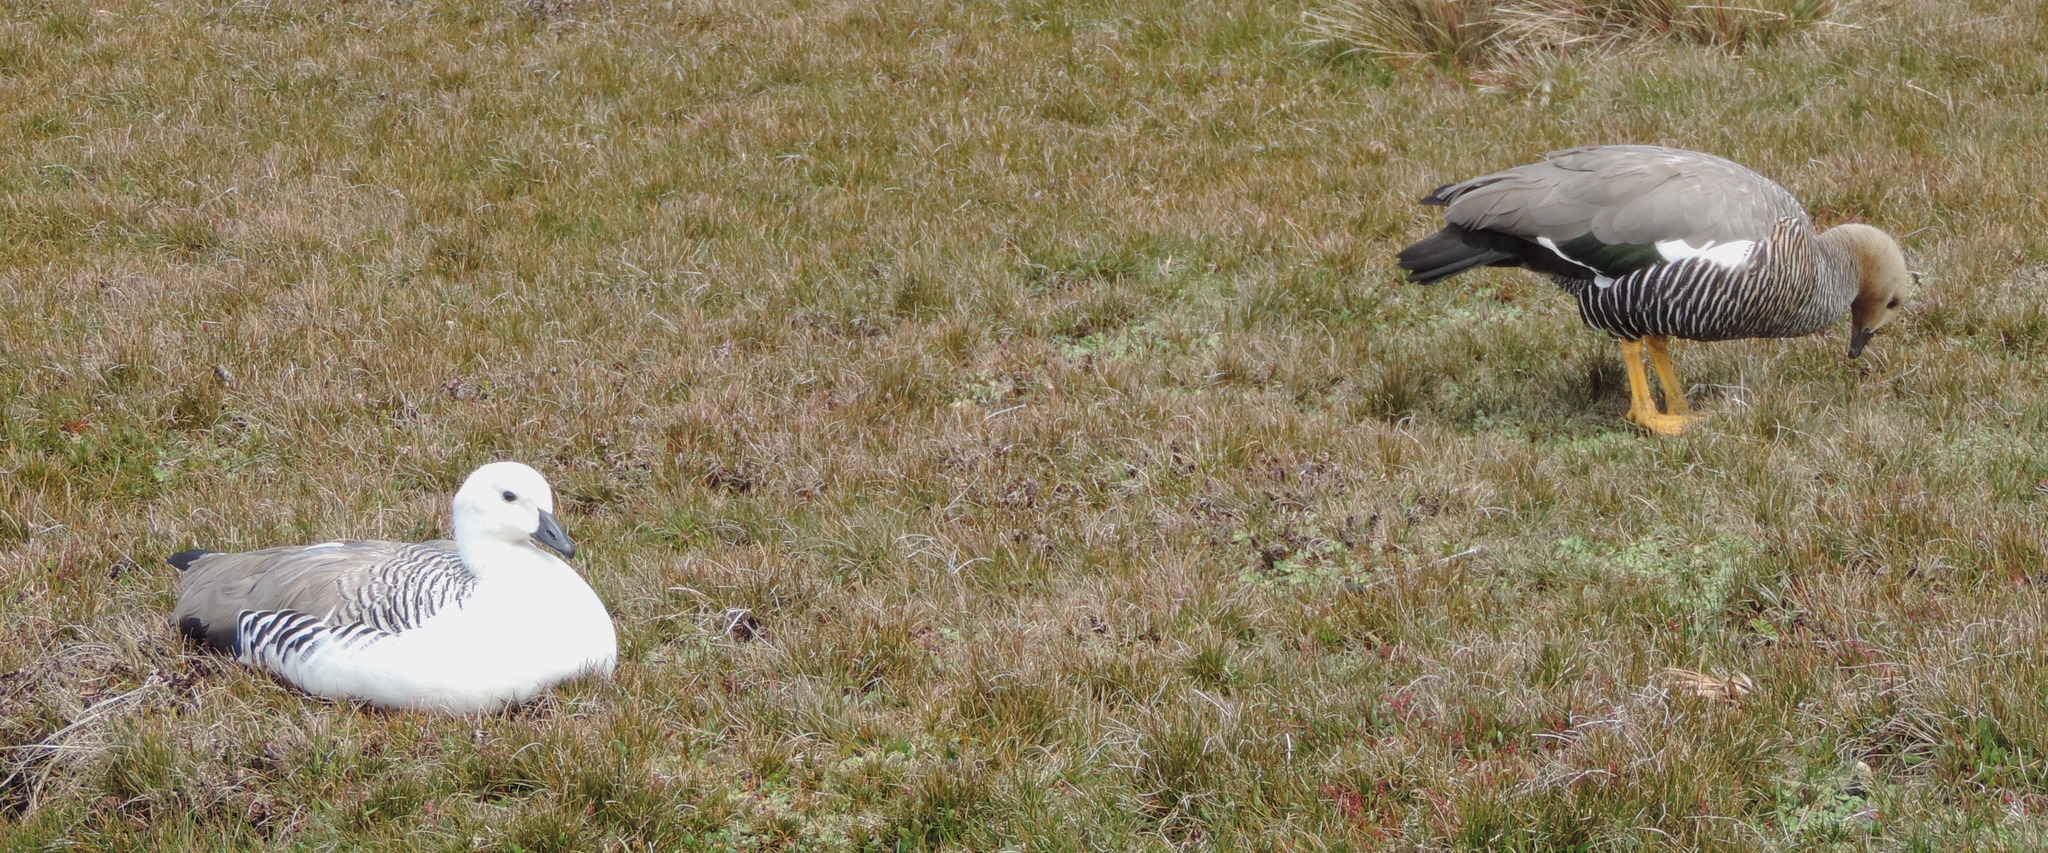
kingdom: Animalia
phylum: Chordata
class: Aves
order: Anseriformes
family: Anatidae
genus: Chloephaga
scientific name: Chloephaga picta
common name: Upland goose
